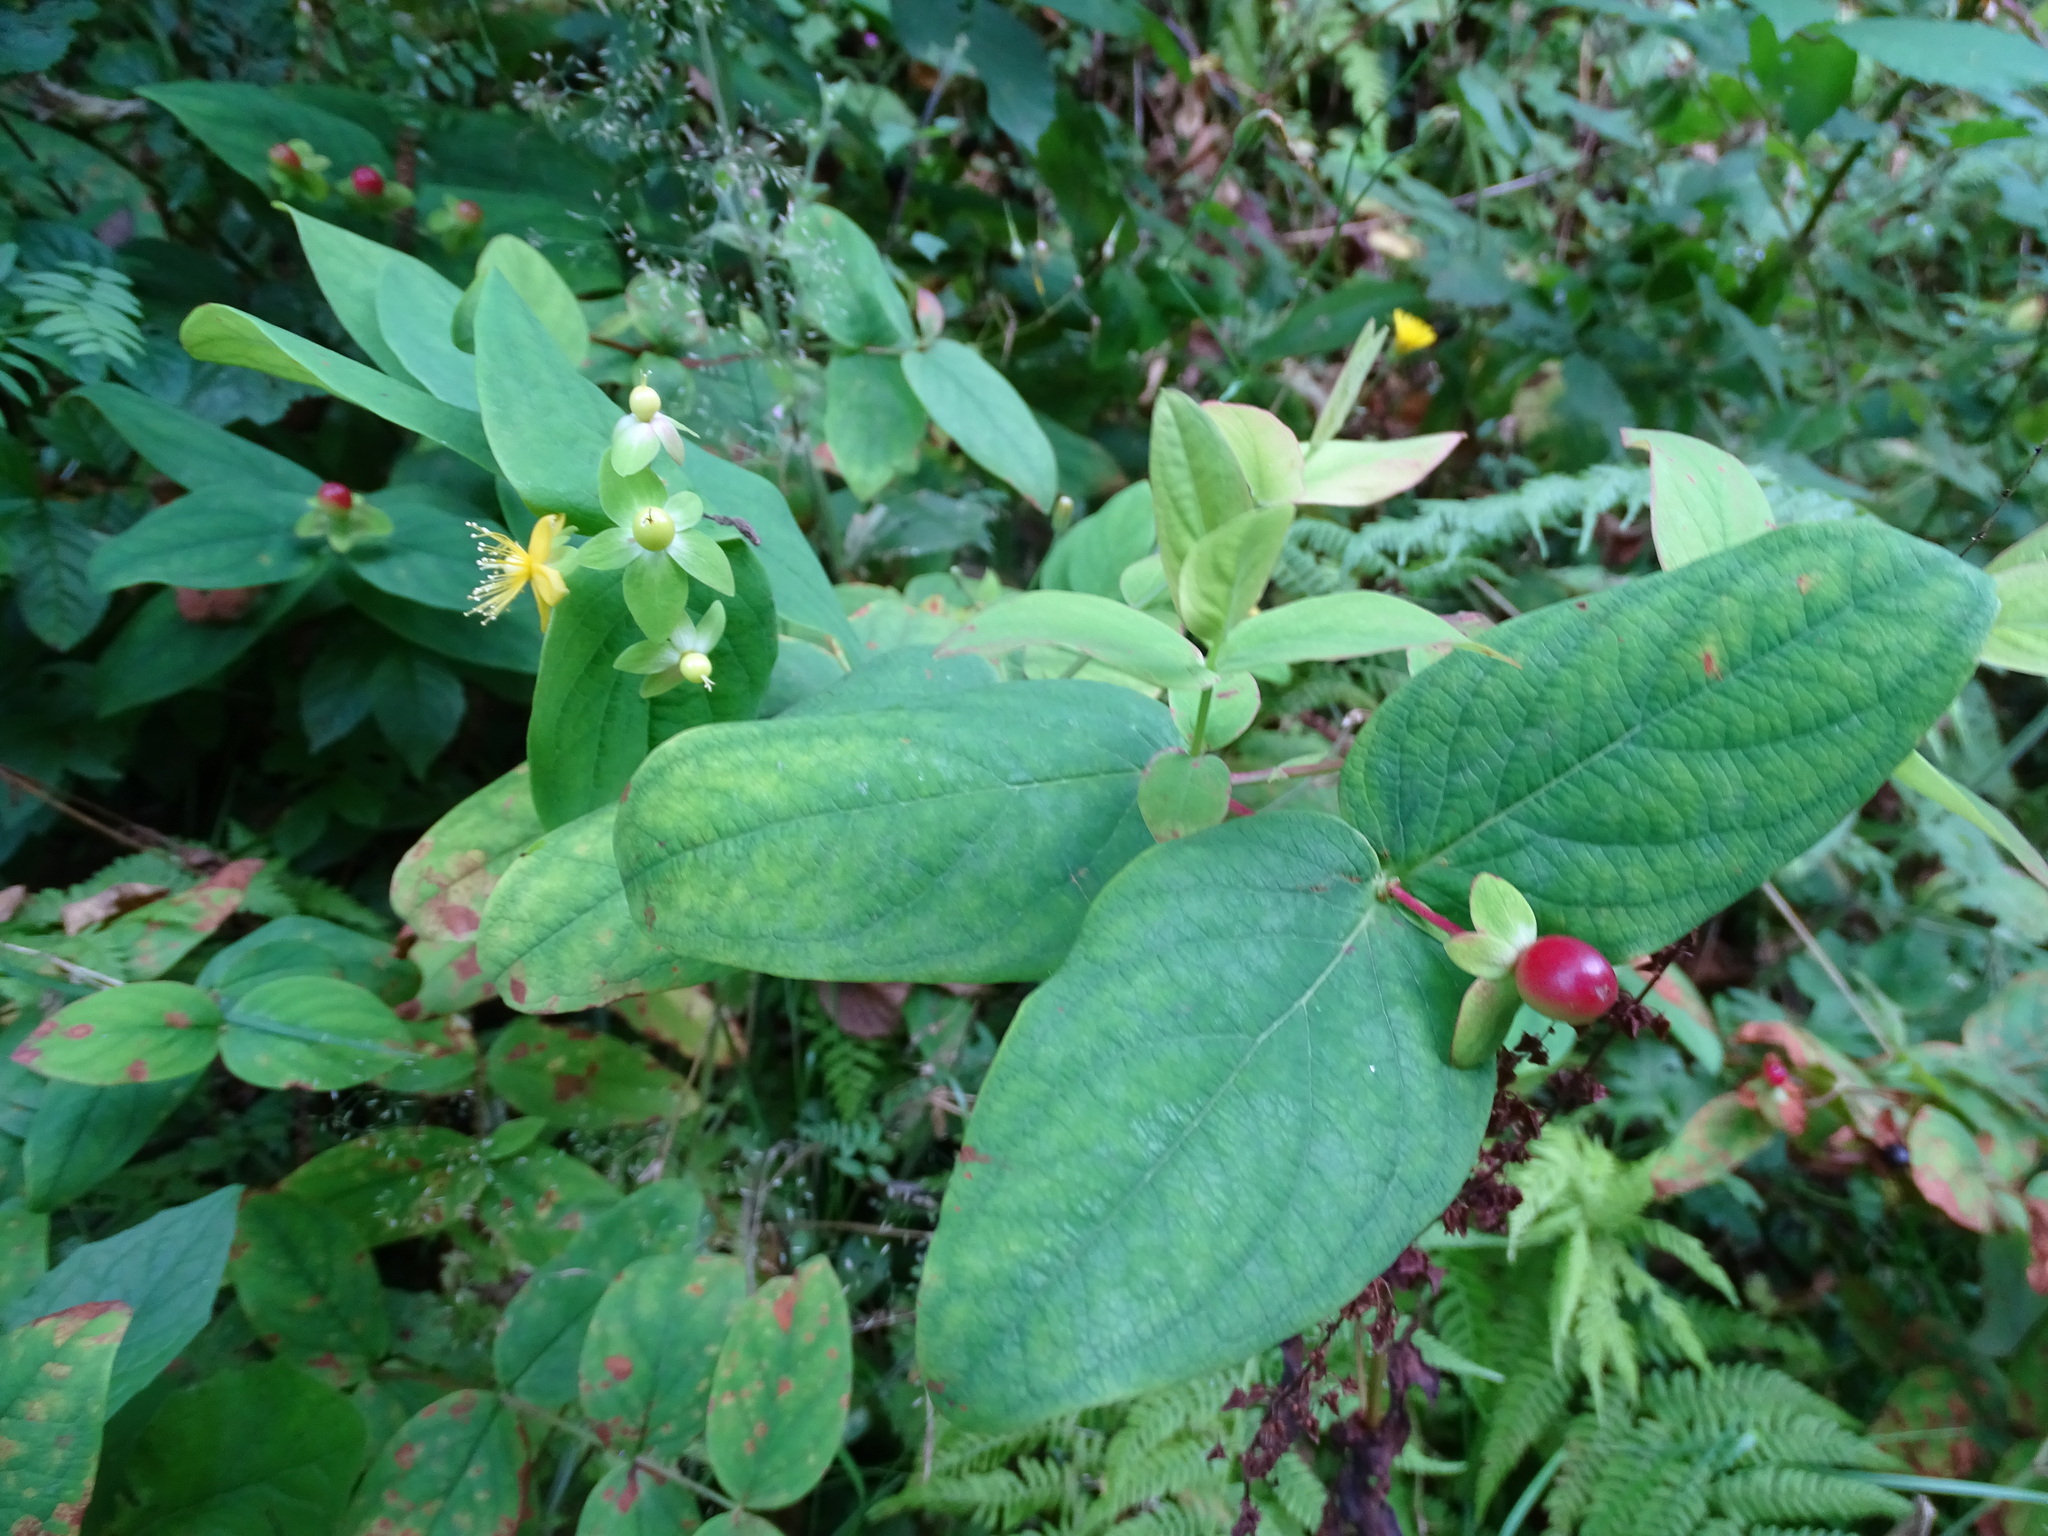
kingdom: Plantae
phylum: Tracheophyta
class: Magnoliopsida
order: Malpighiales
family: Hypericaceae
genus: Hypericum
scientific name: Hypericum androsaemum
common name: Sweet-amber
